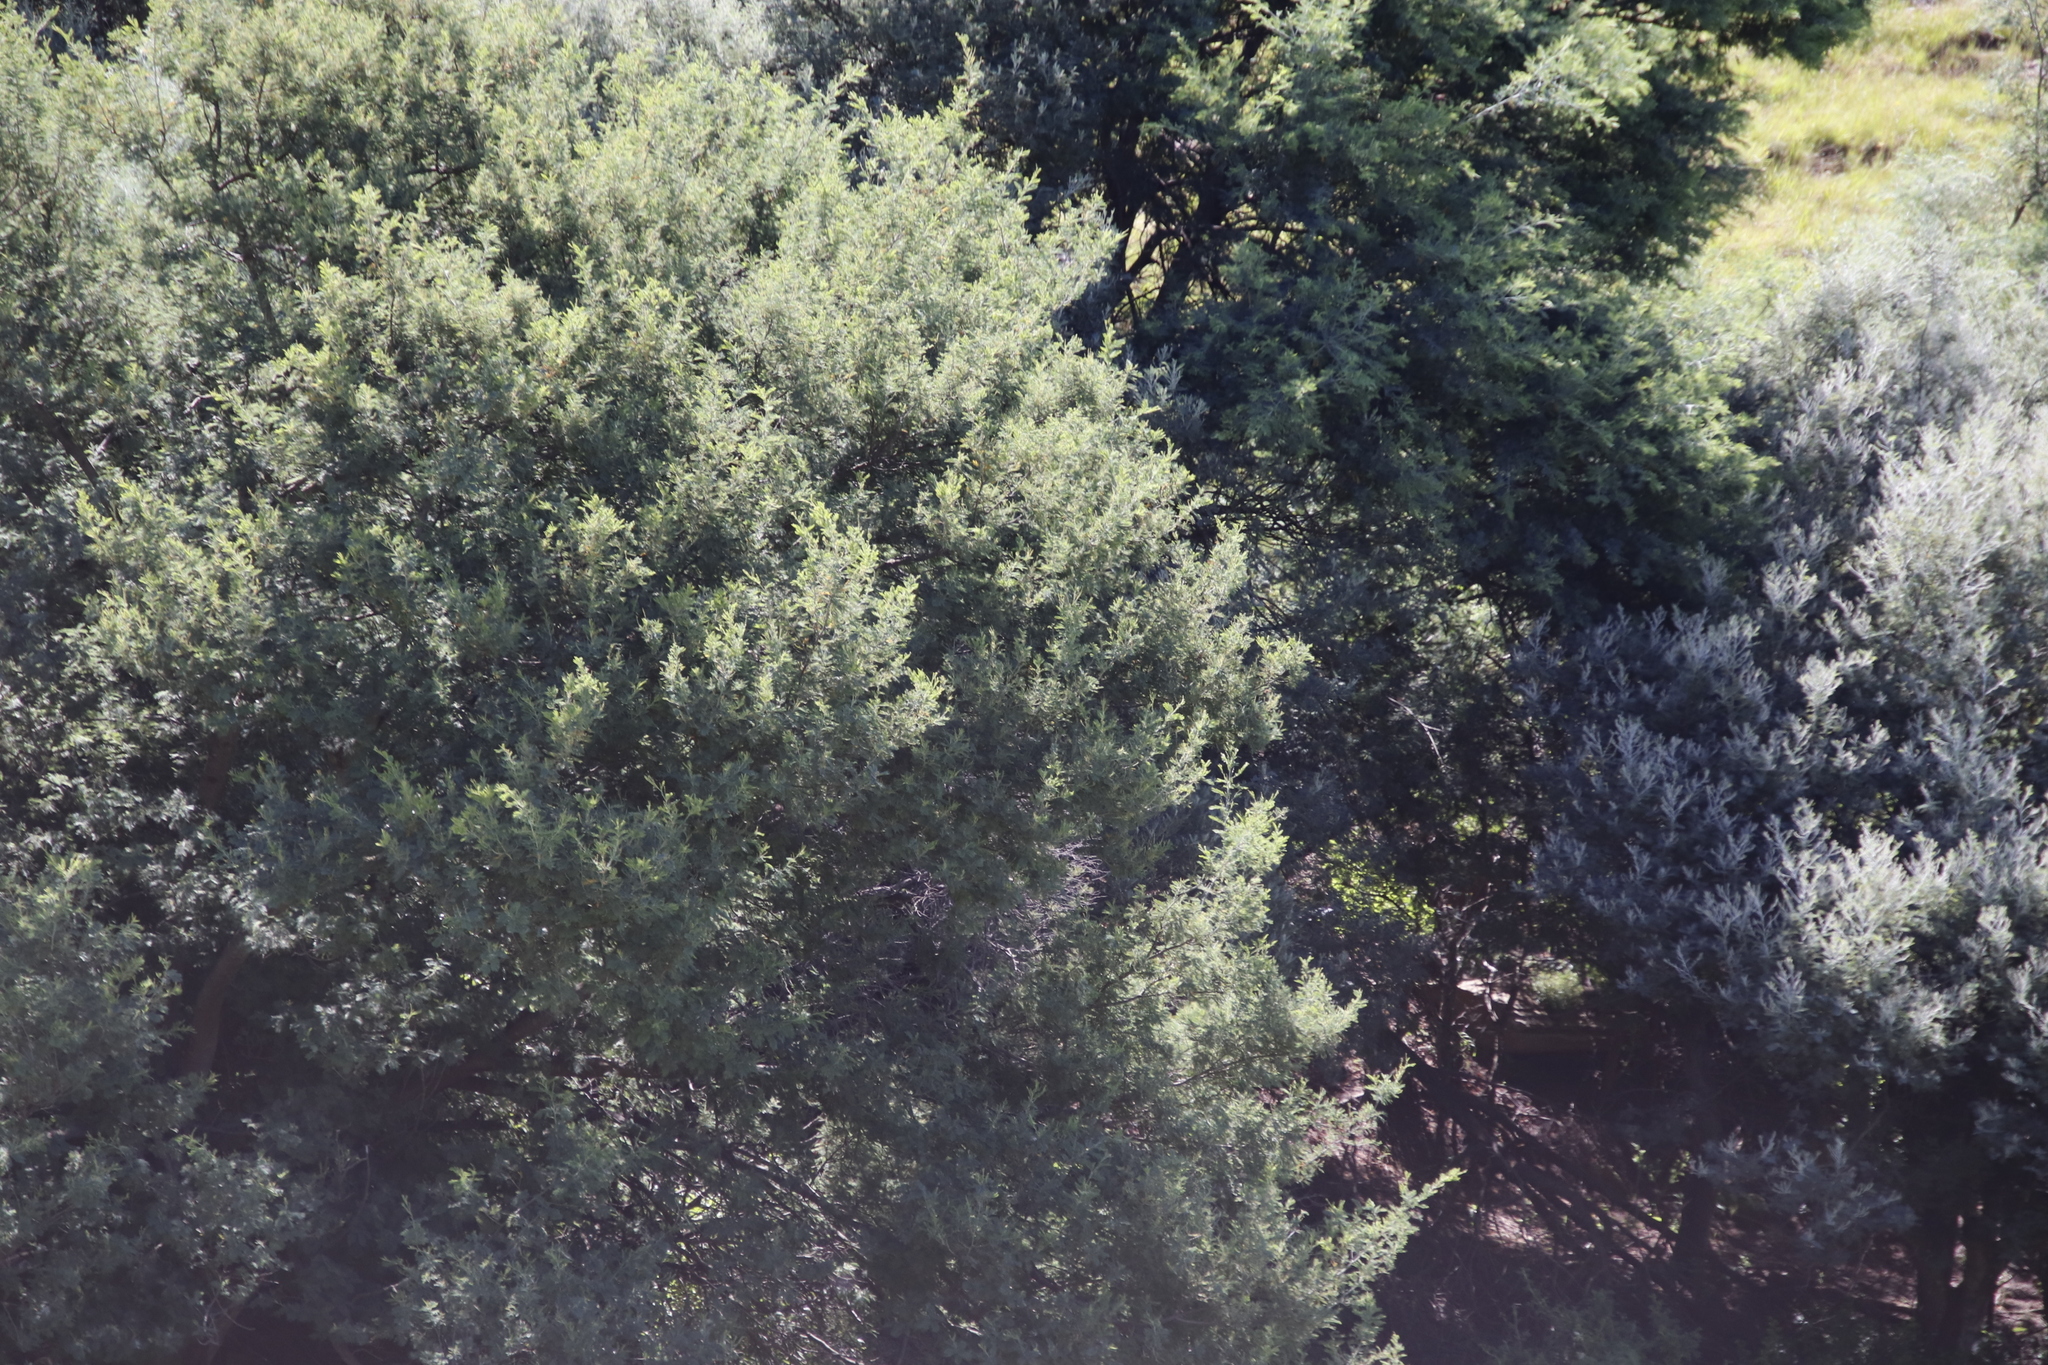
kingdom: Plantae
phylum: Tracheophyta
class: Magnoliopsida
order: Fabales
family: Fabaceae
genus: Acacia
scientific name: Acacia dealbata
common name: Silver wattle
